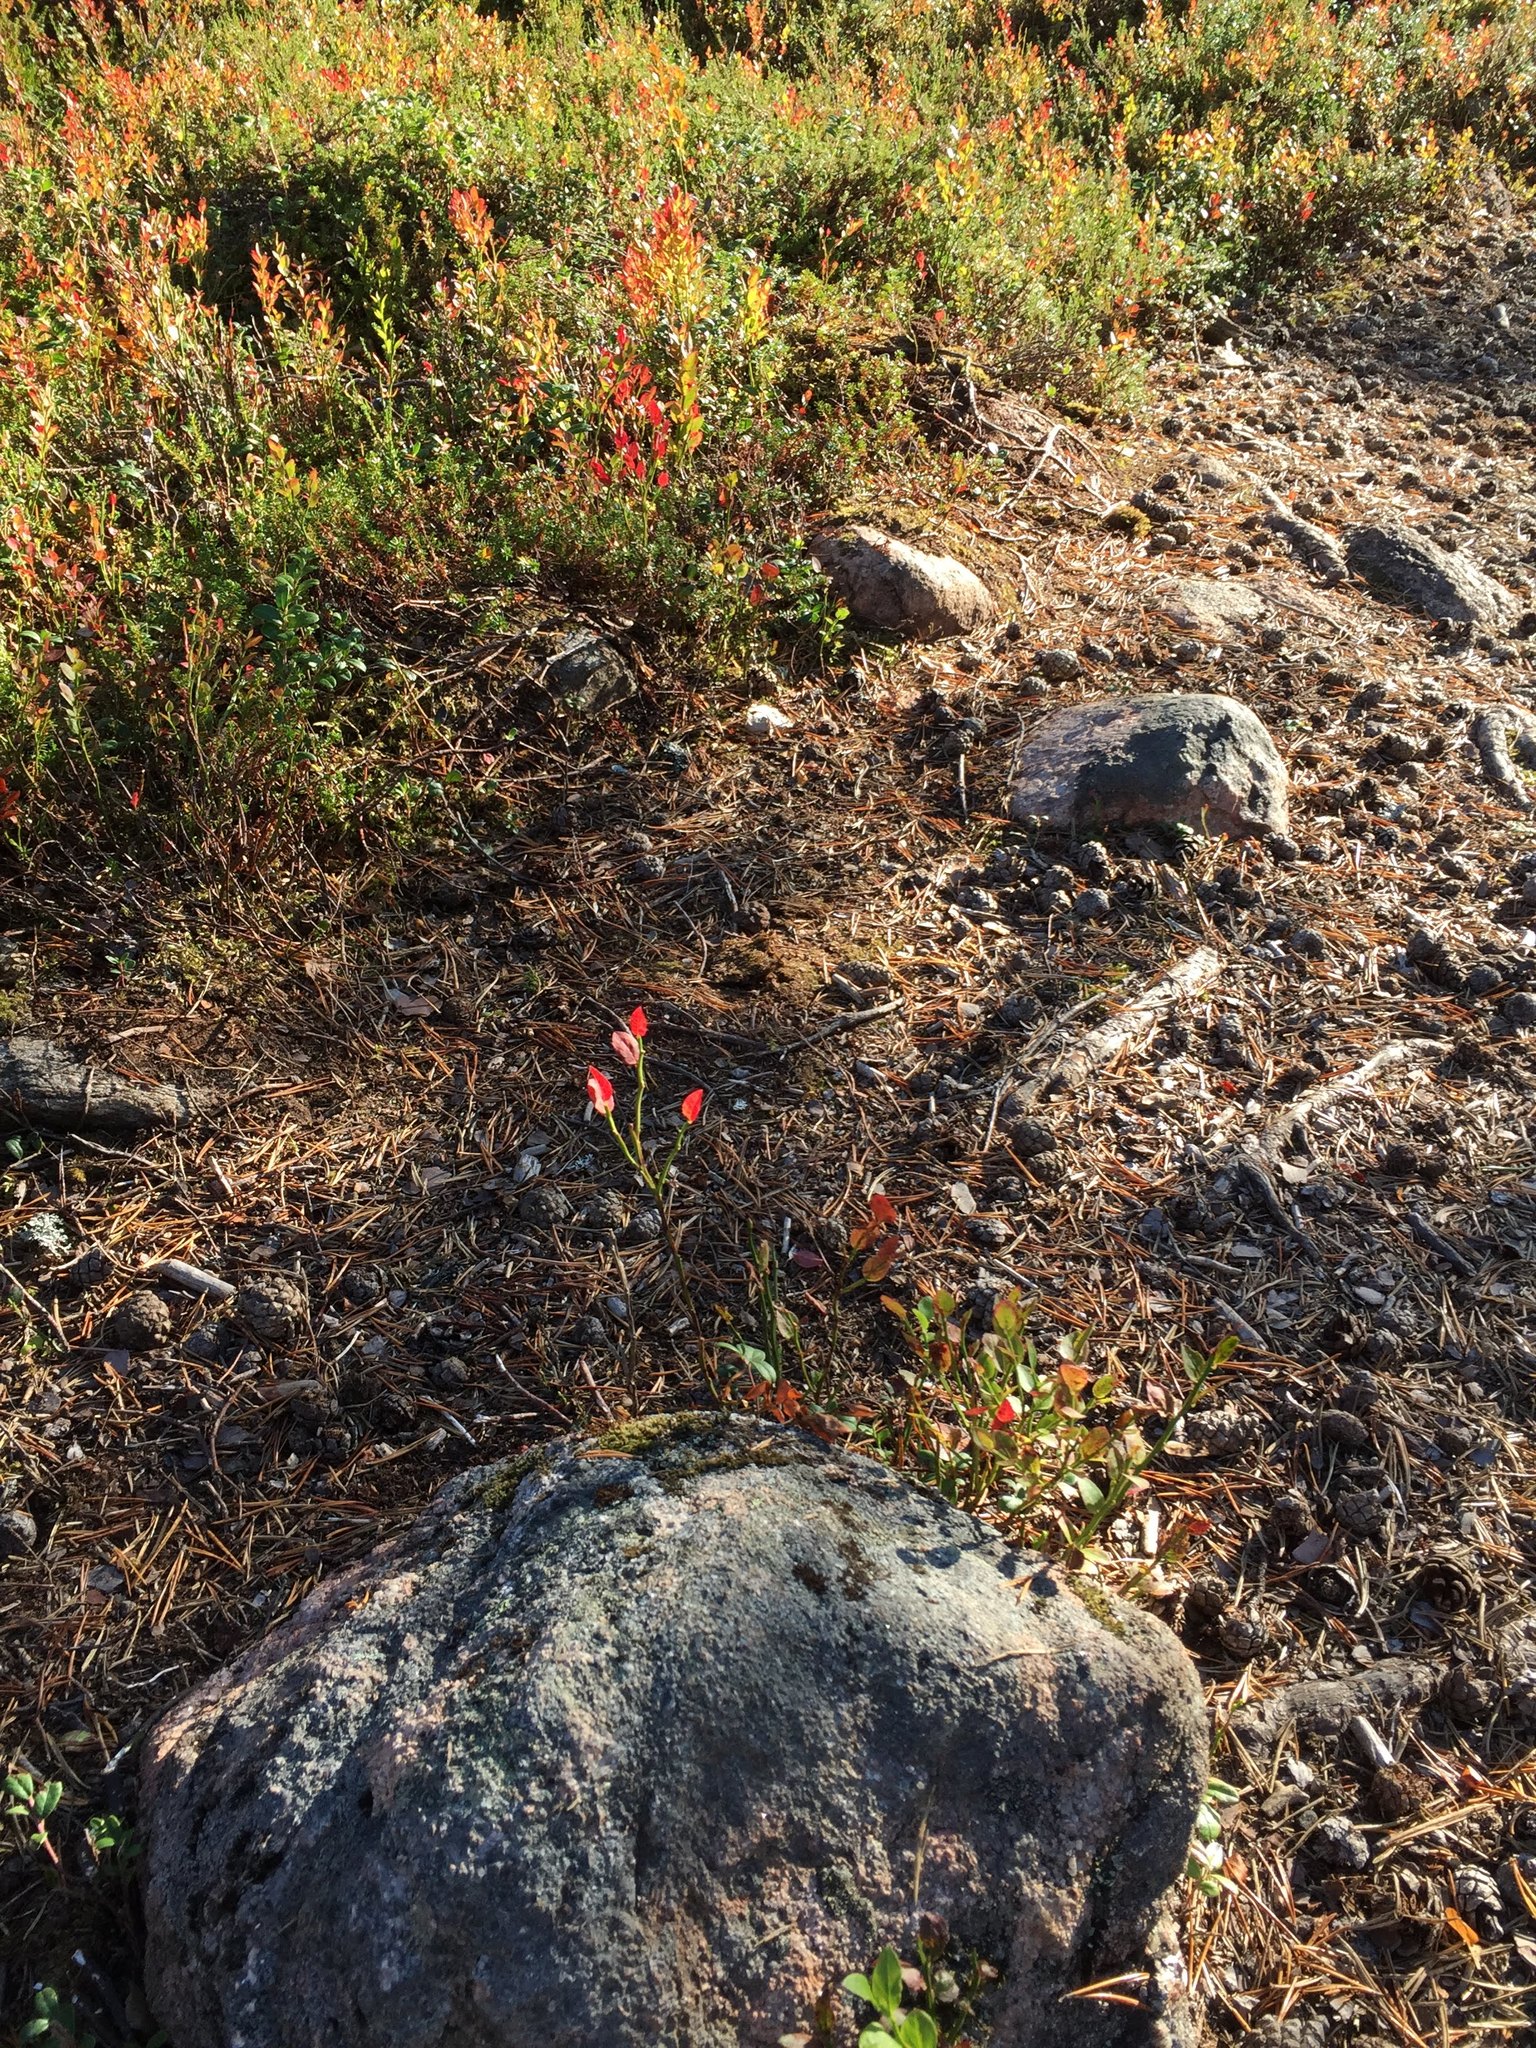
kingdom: Plantae
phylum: Tracheophyta
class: Magnoliopsida
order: Ericales
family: Ericaceae
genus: Vaccinium
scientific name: Vaccinium myrtillus
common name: Bilberry
